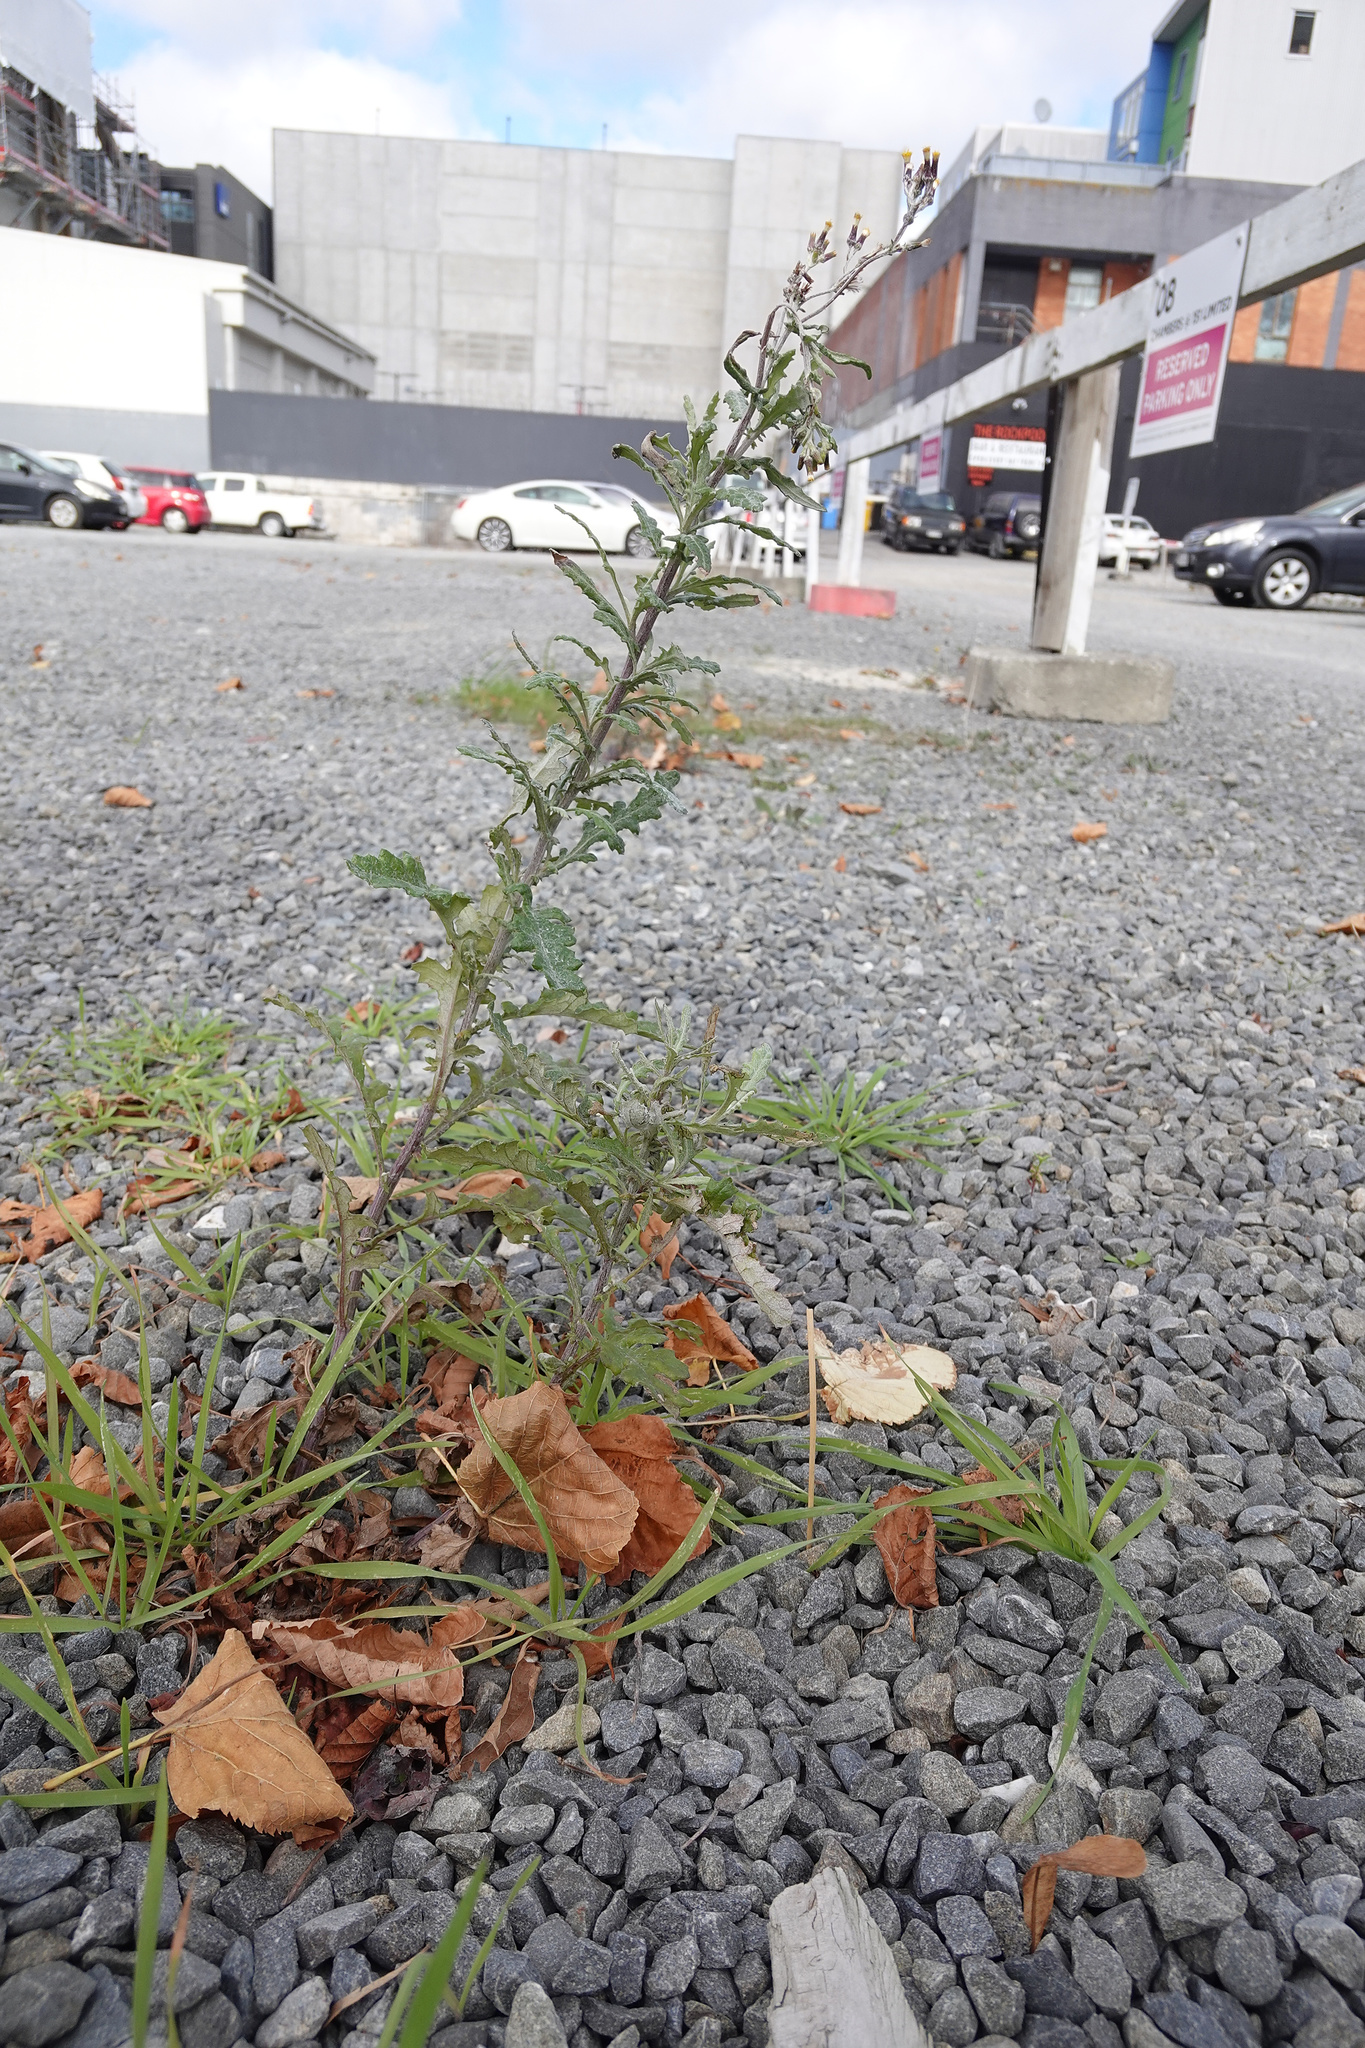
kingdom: Plantae
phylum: Tracheophyta
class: Magnoliopsida
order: Asterales
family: Asteraceae
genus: Senecio
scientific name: Senecio glomeratus
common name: Cutleaf burnweed
